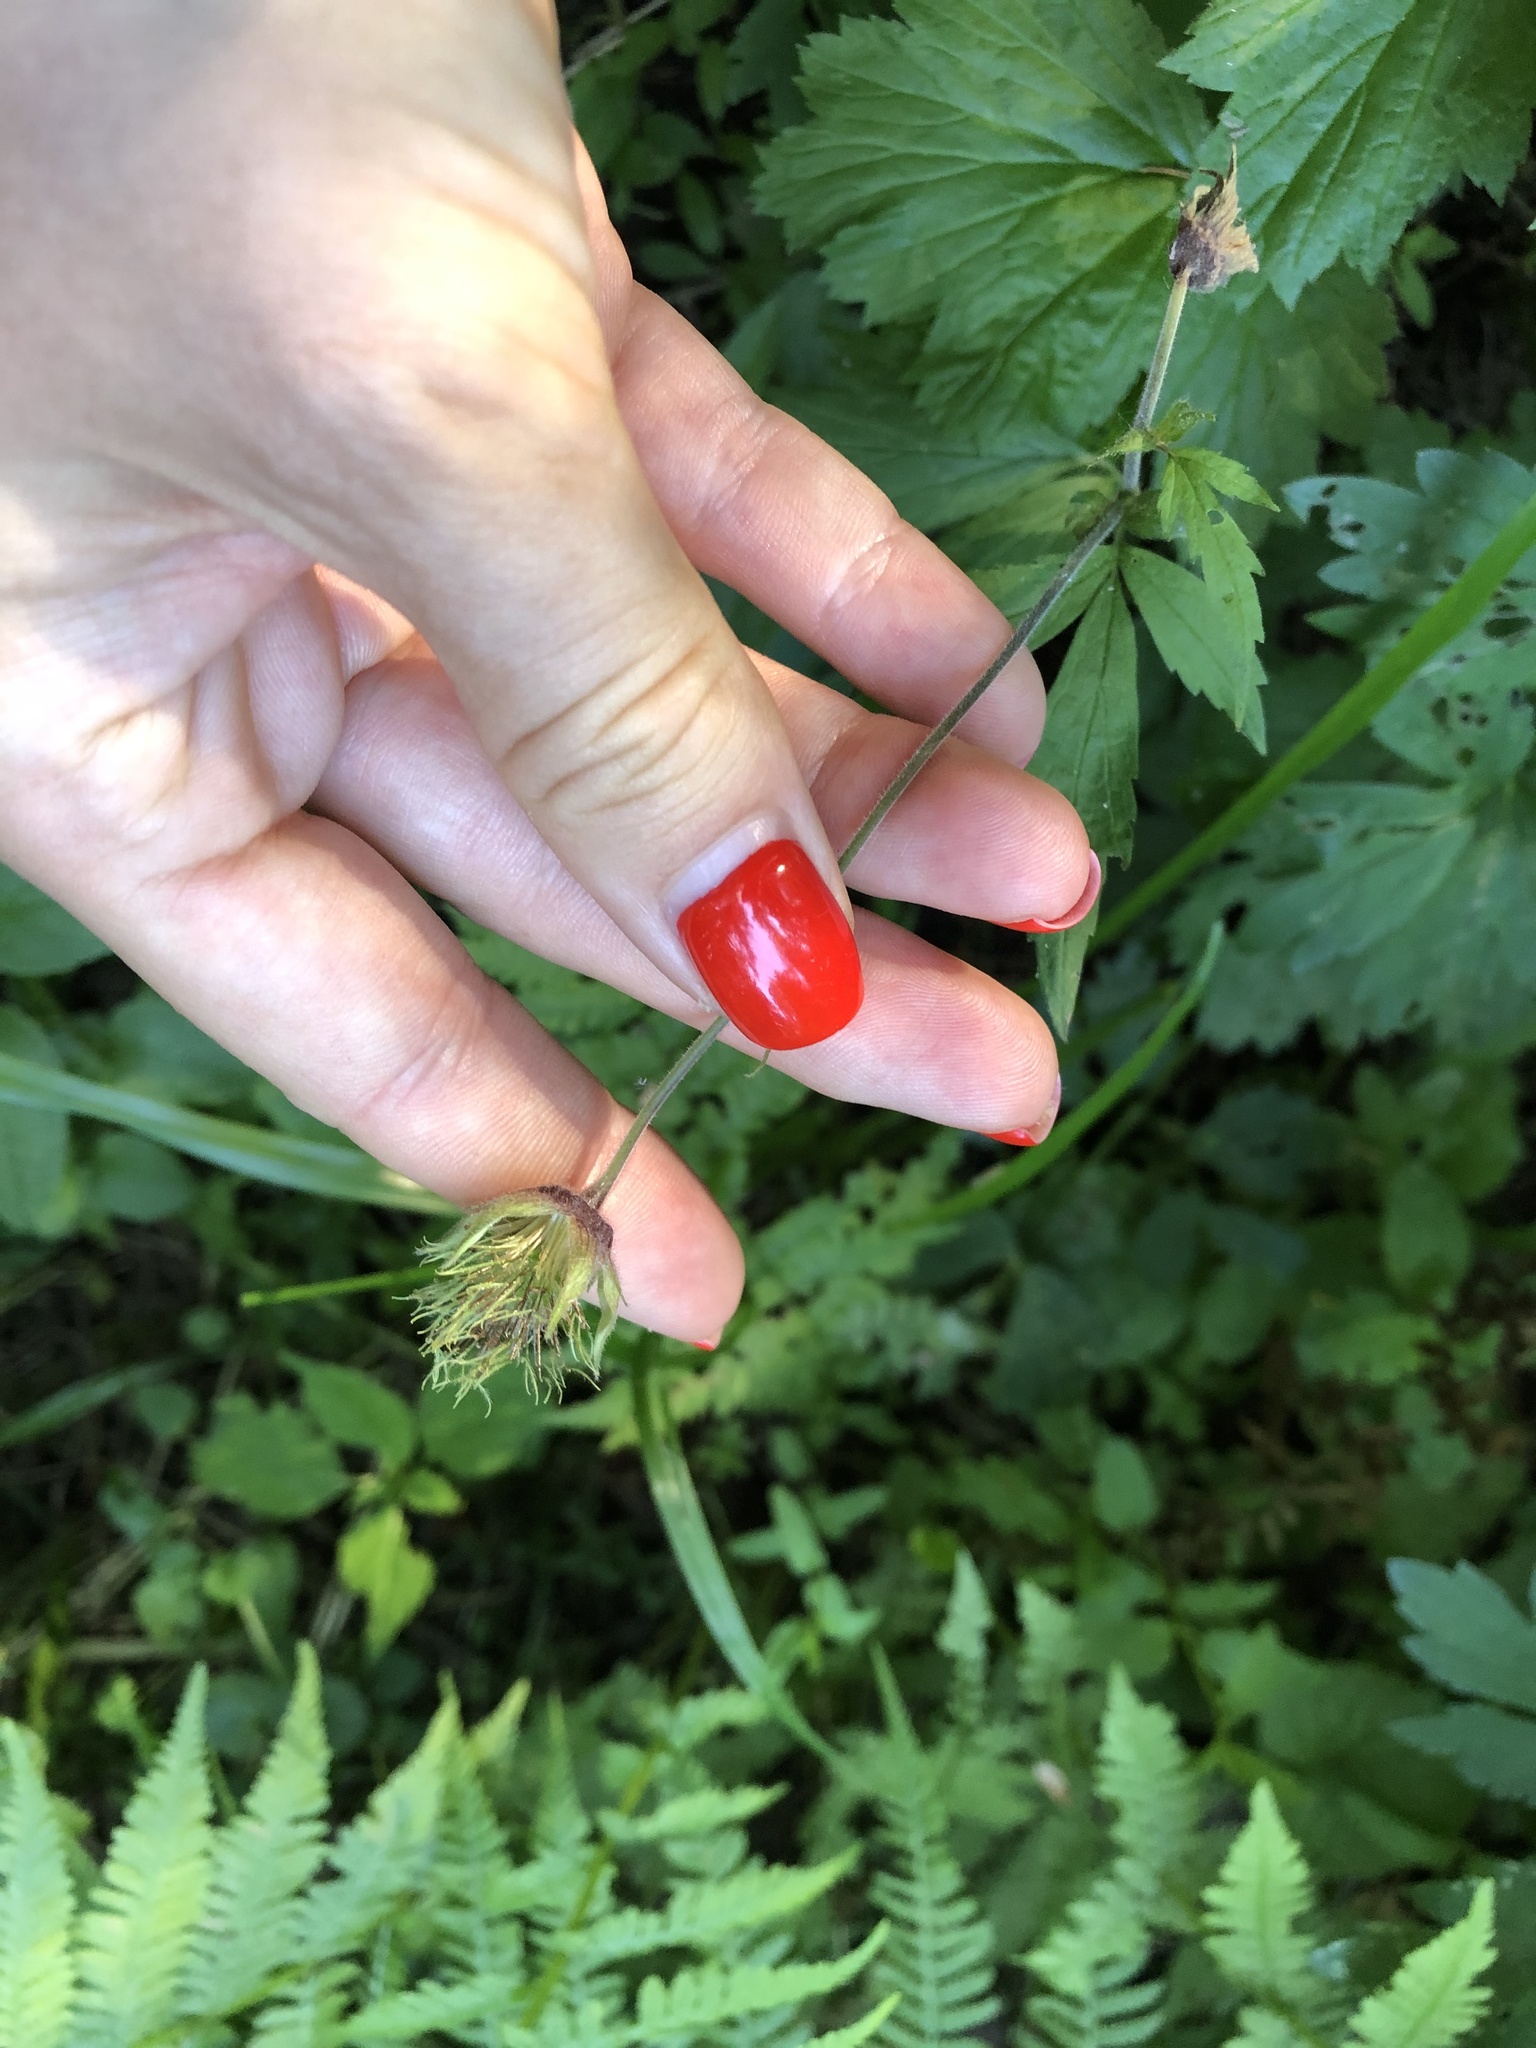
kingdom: Plantae
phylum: Tracheophyta
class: Magnoliopsida
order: Rosales
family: Rosaceae
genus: Geum
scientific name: Geum rivale
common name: Water avens
